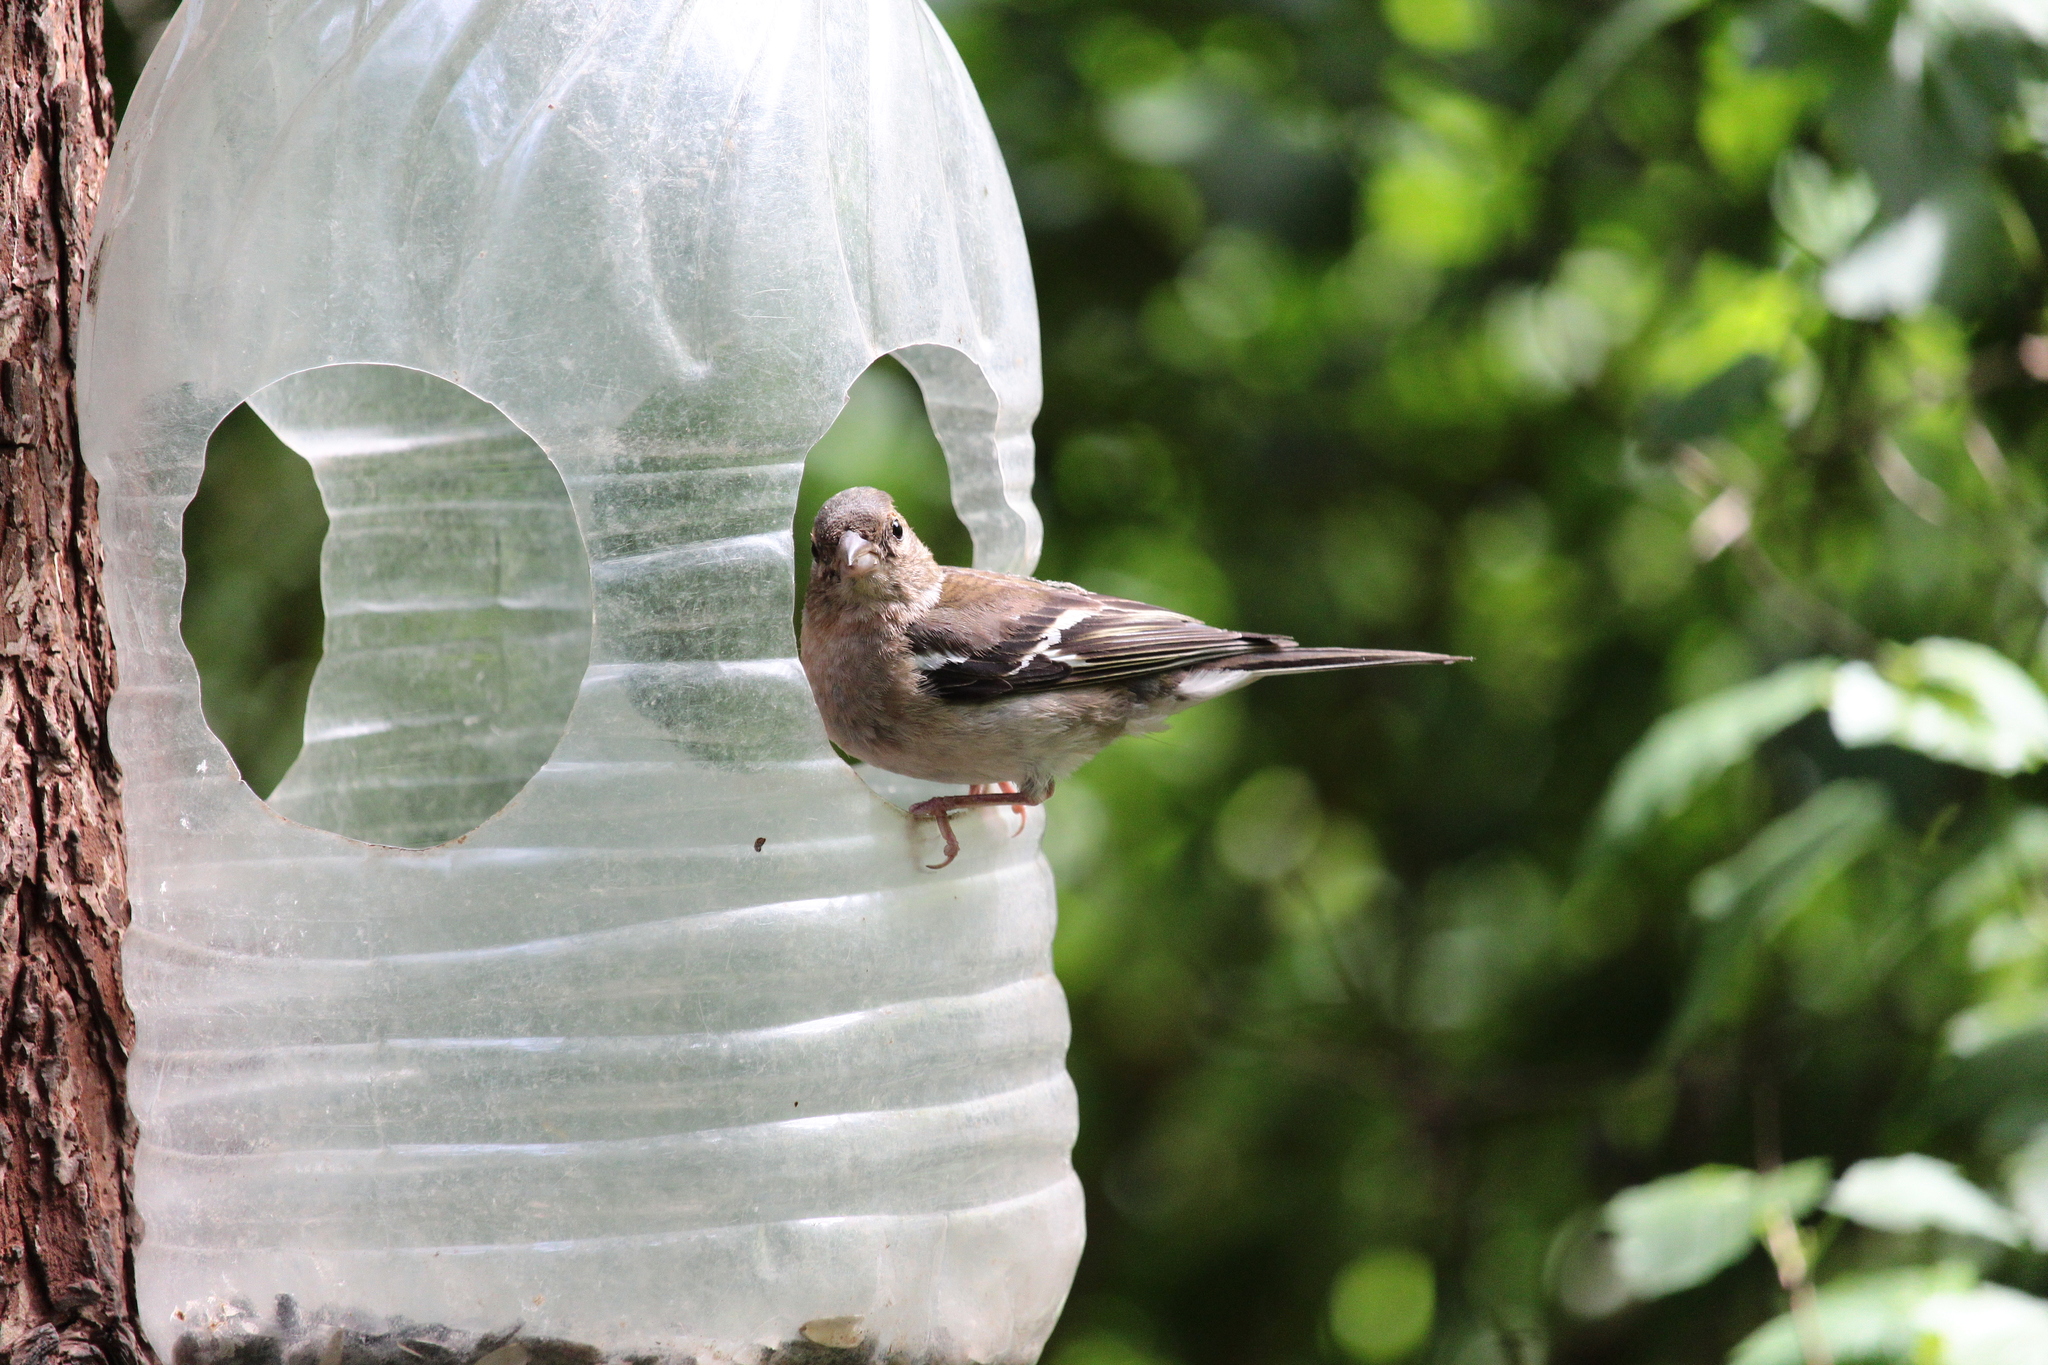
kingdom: Animalia
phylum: Chordata
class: Aves
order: Passeriformes
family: Fringillidae
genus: Fringilla
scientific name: Fringilla coelebs
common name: Common chaffinch
